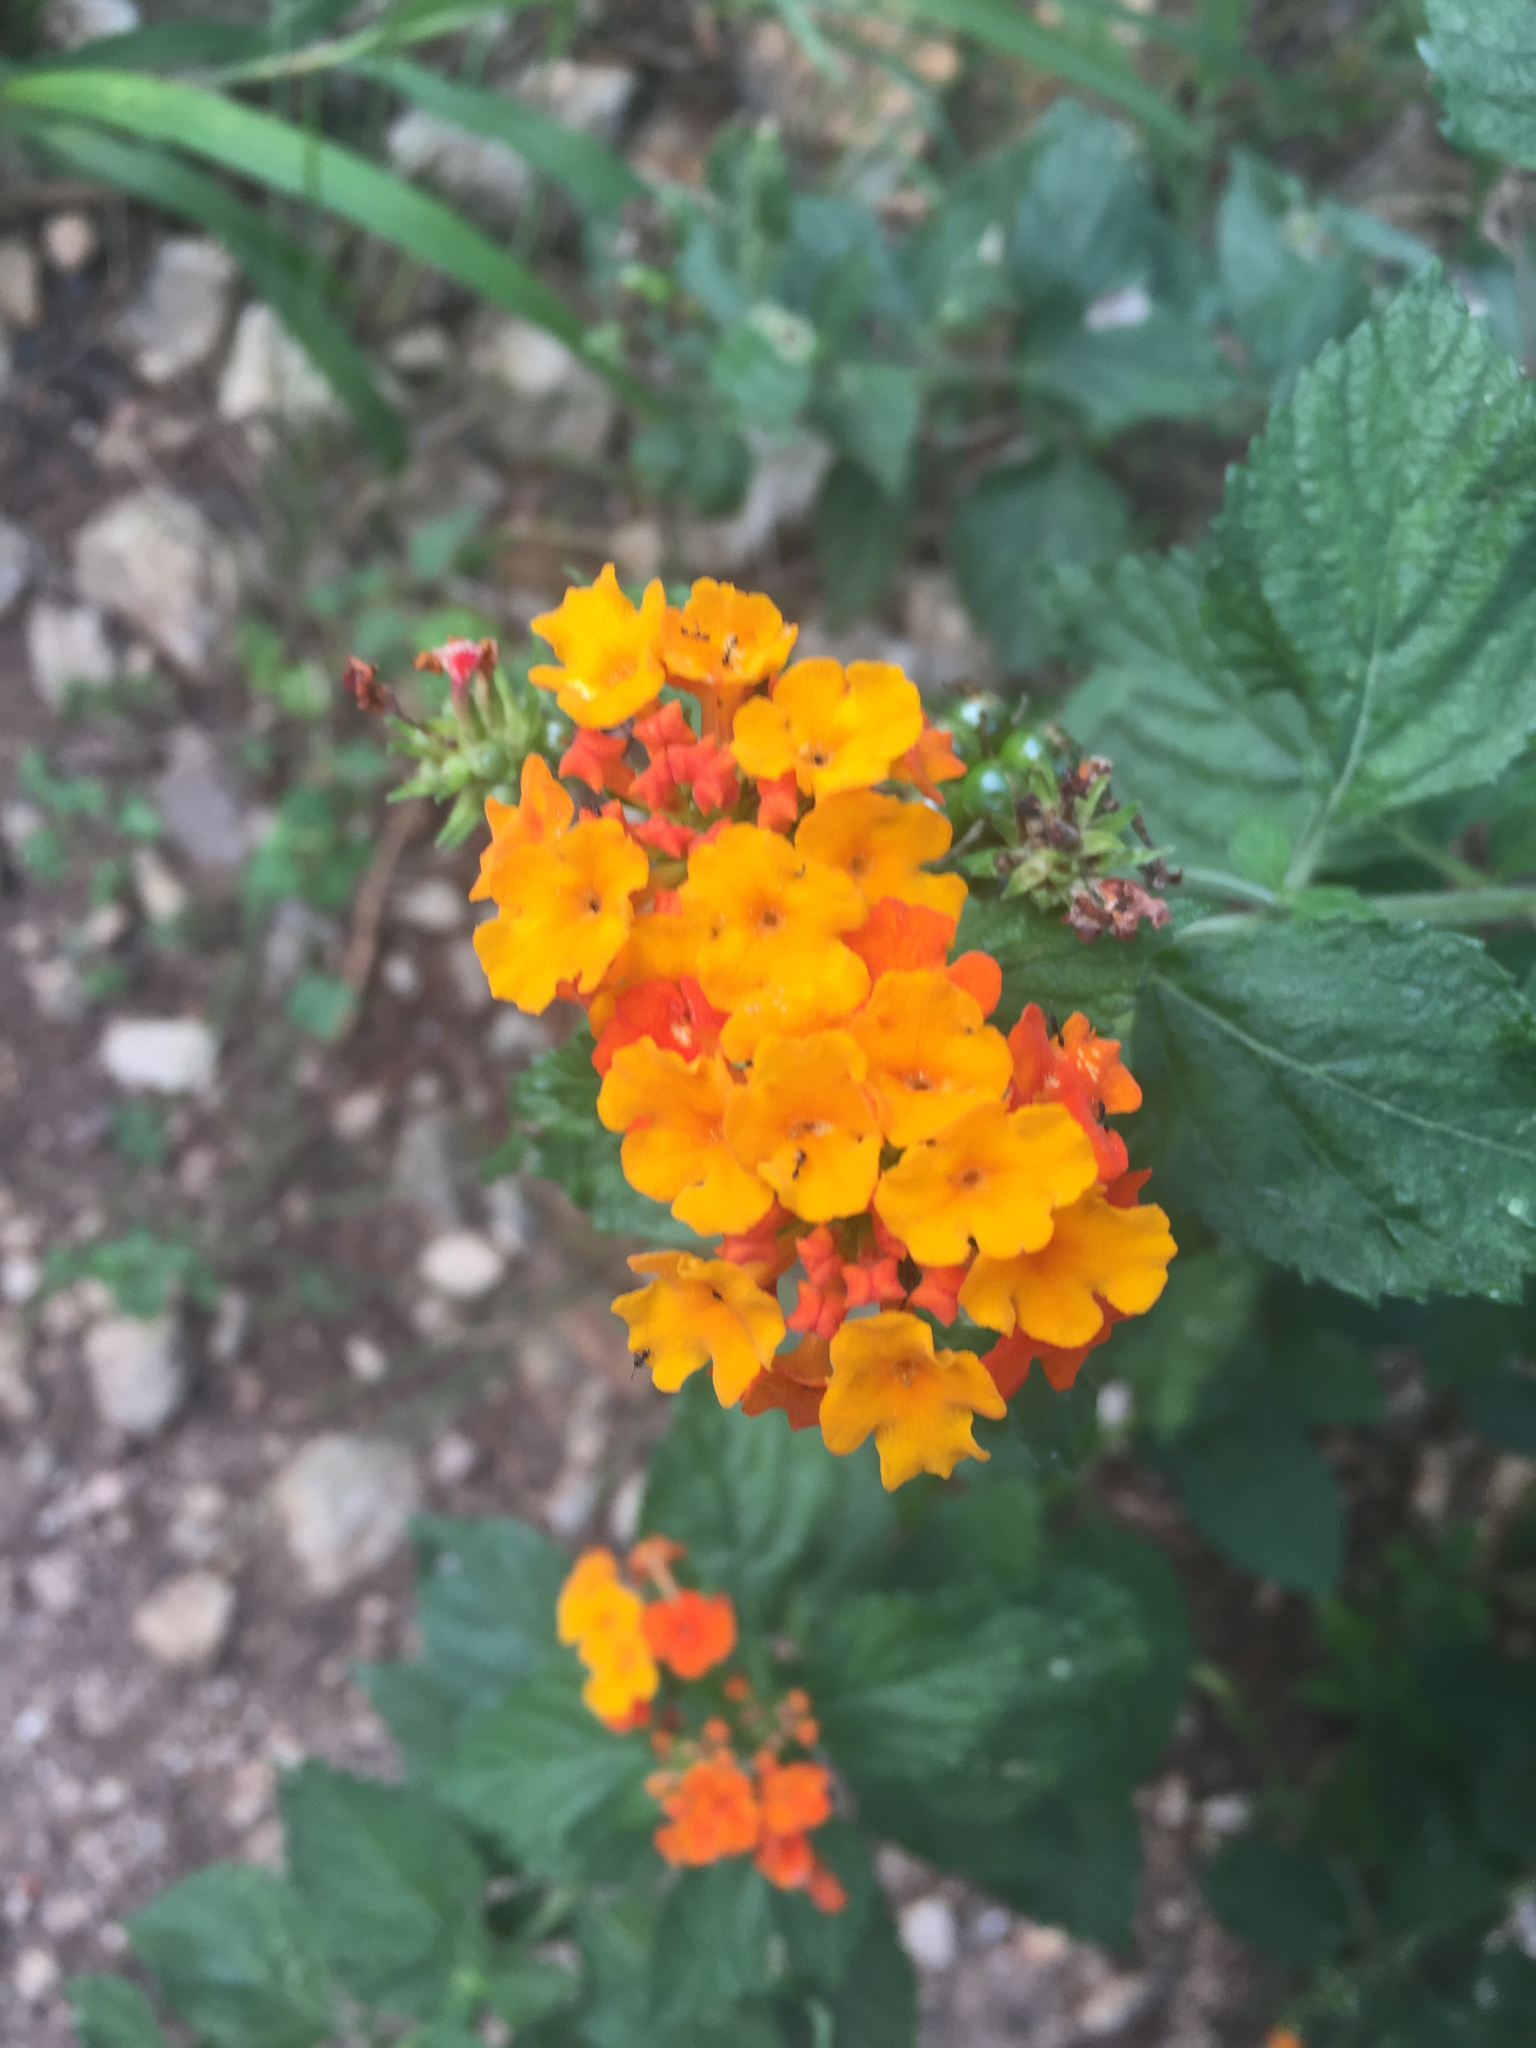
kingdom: Plantae
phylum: Tracheophyta
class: Magnoliopsida
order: Lamiales
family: Verbenaceae
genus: Lantana
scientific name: Lantana camara
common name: Lantana
